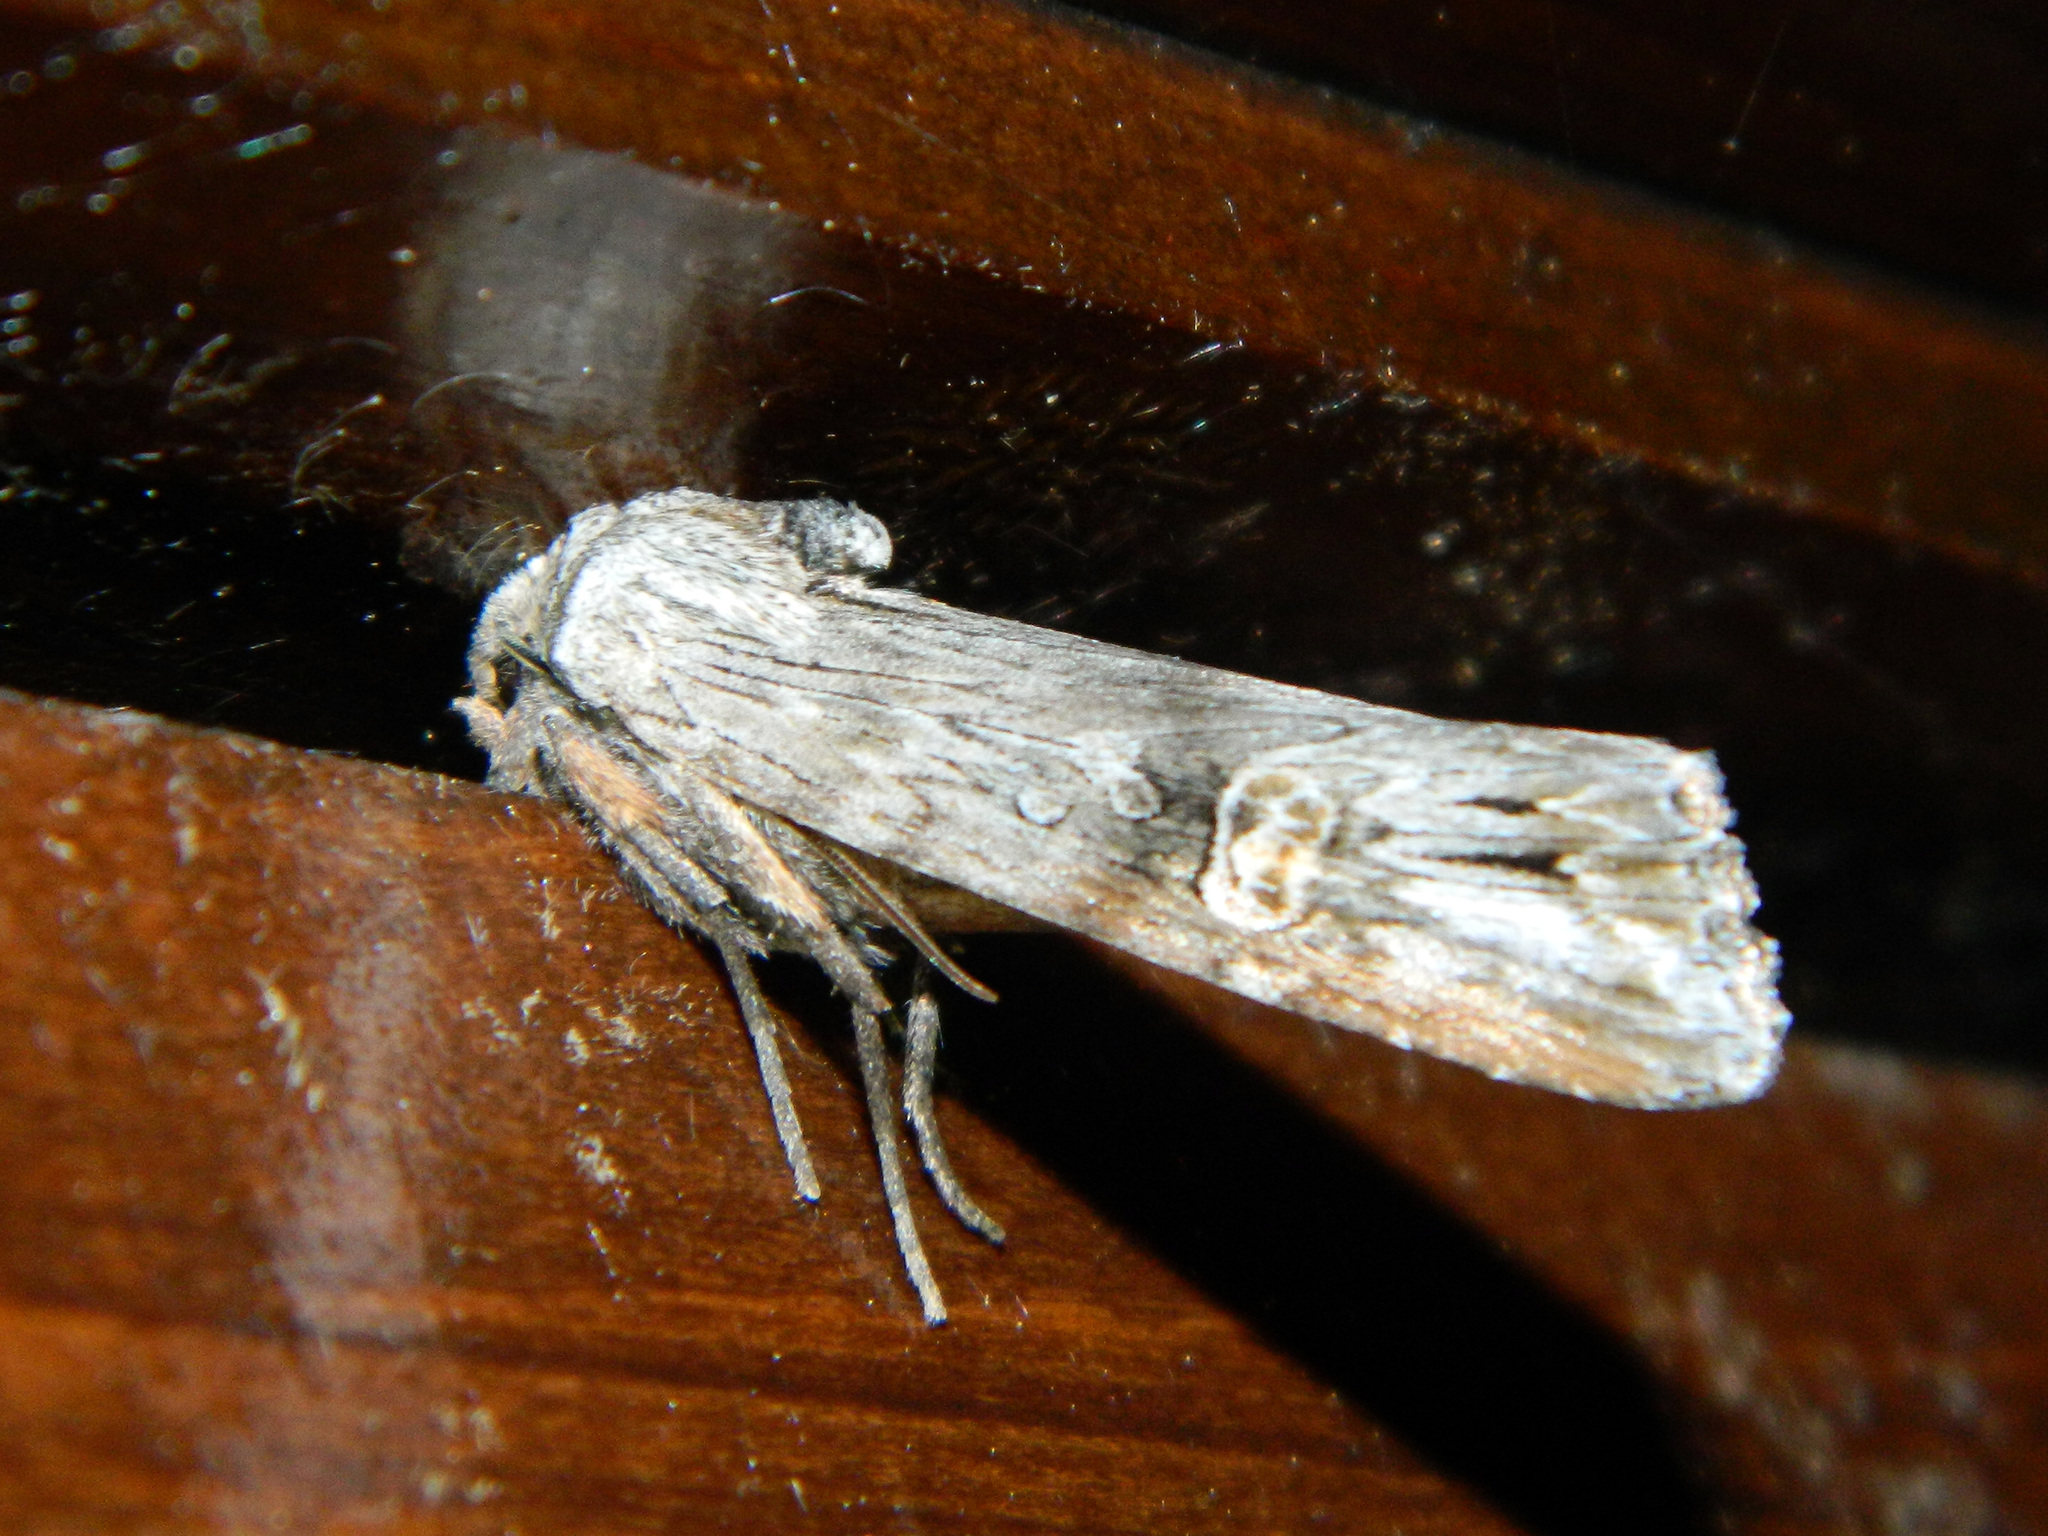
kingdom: Animalia
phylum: Arthropoda
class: Insecta
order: Lepidoptera
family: Noctuidae
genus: Xylena
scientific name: Xylena germana
